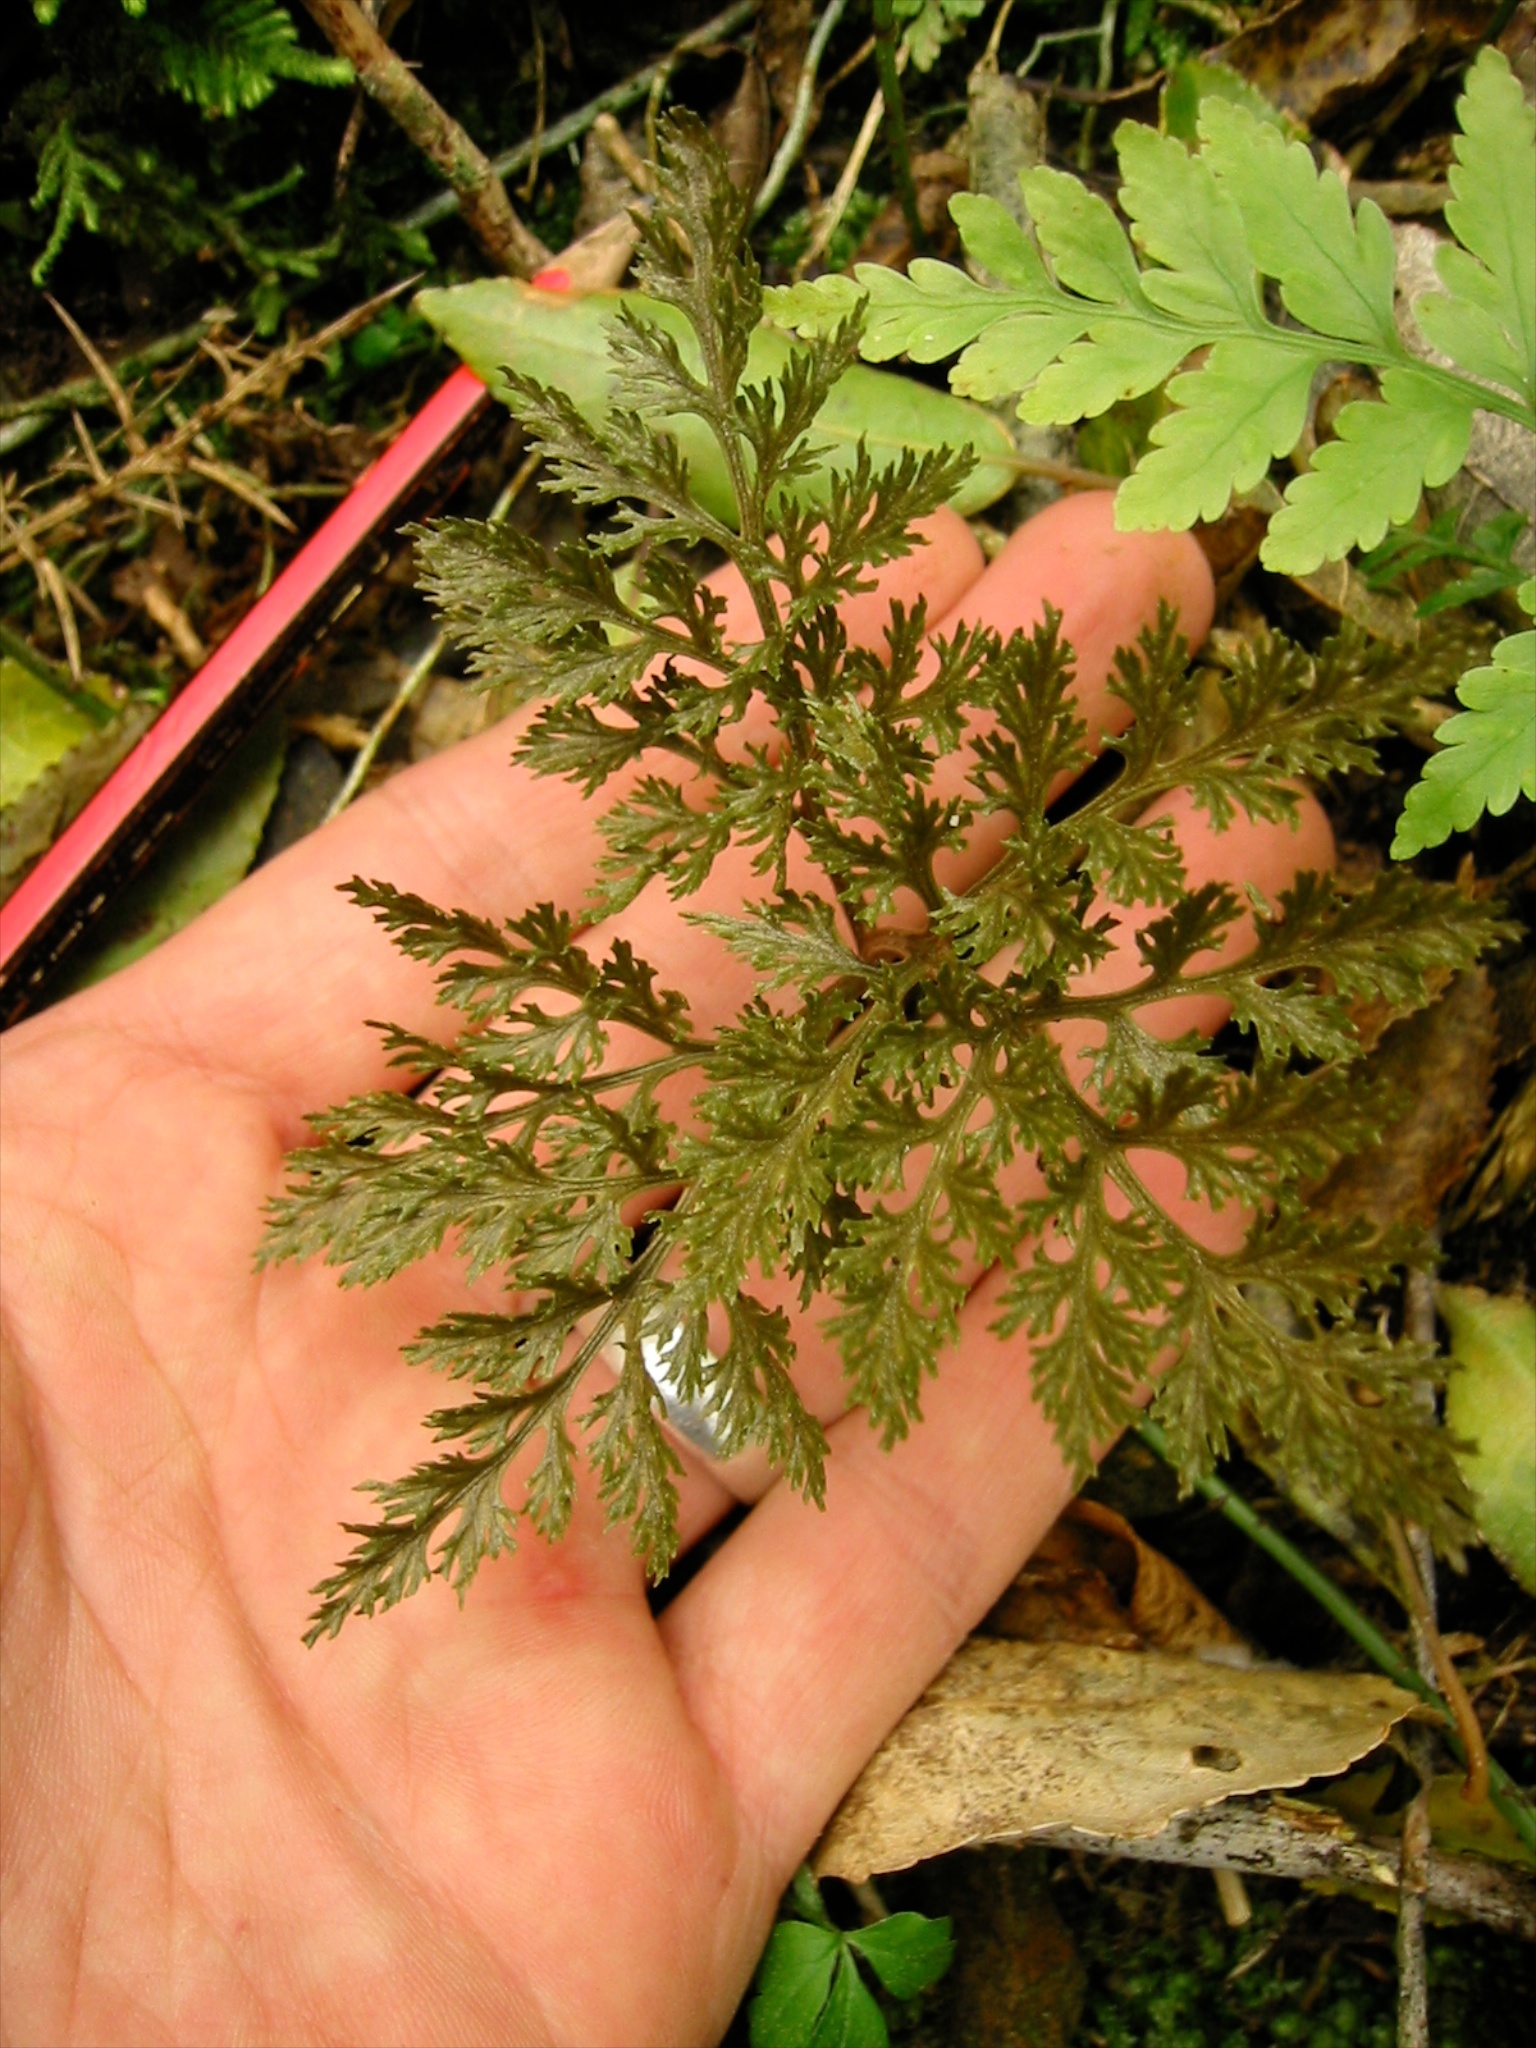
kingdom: Plantae
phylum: Tracheophyta
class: Polypodiopsida
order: Ophioglossales
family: Ophioglossaceae
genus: Sceptridium
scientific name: Sceptridium biforme
